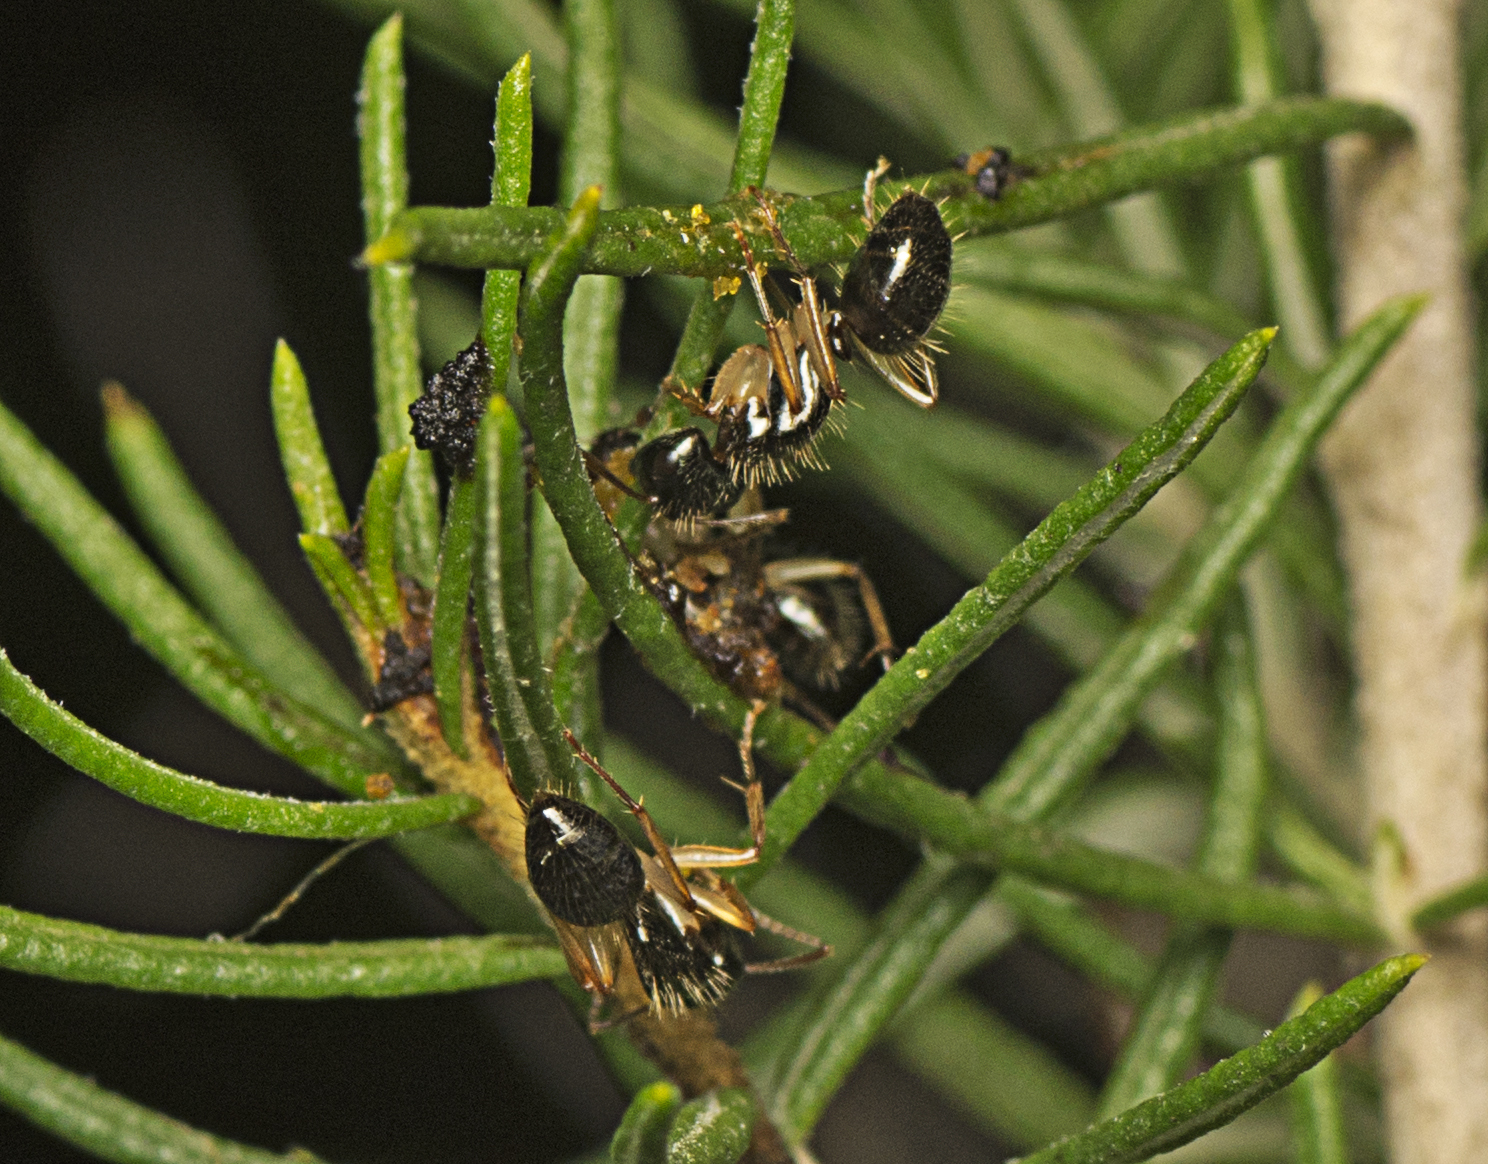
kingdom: Animalia
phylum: Arthropoda
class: Insecta
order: Hymenoptera
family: Formicidae
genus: Camponotus
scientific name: Camponotus lownei
